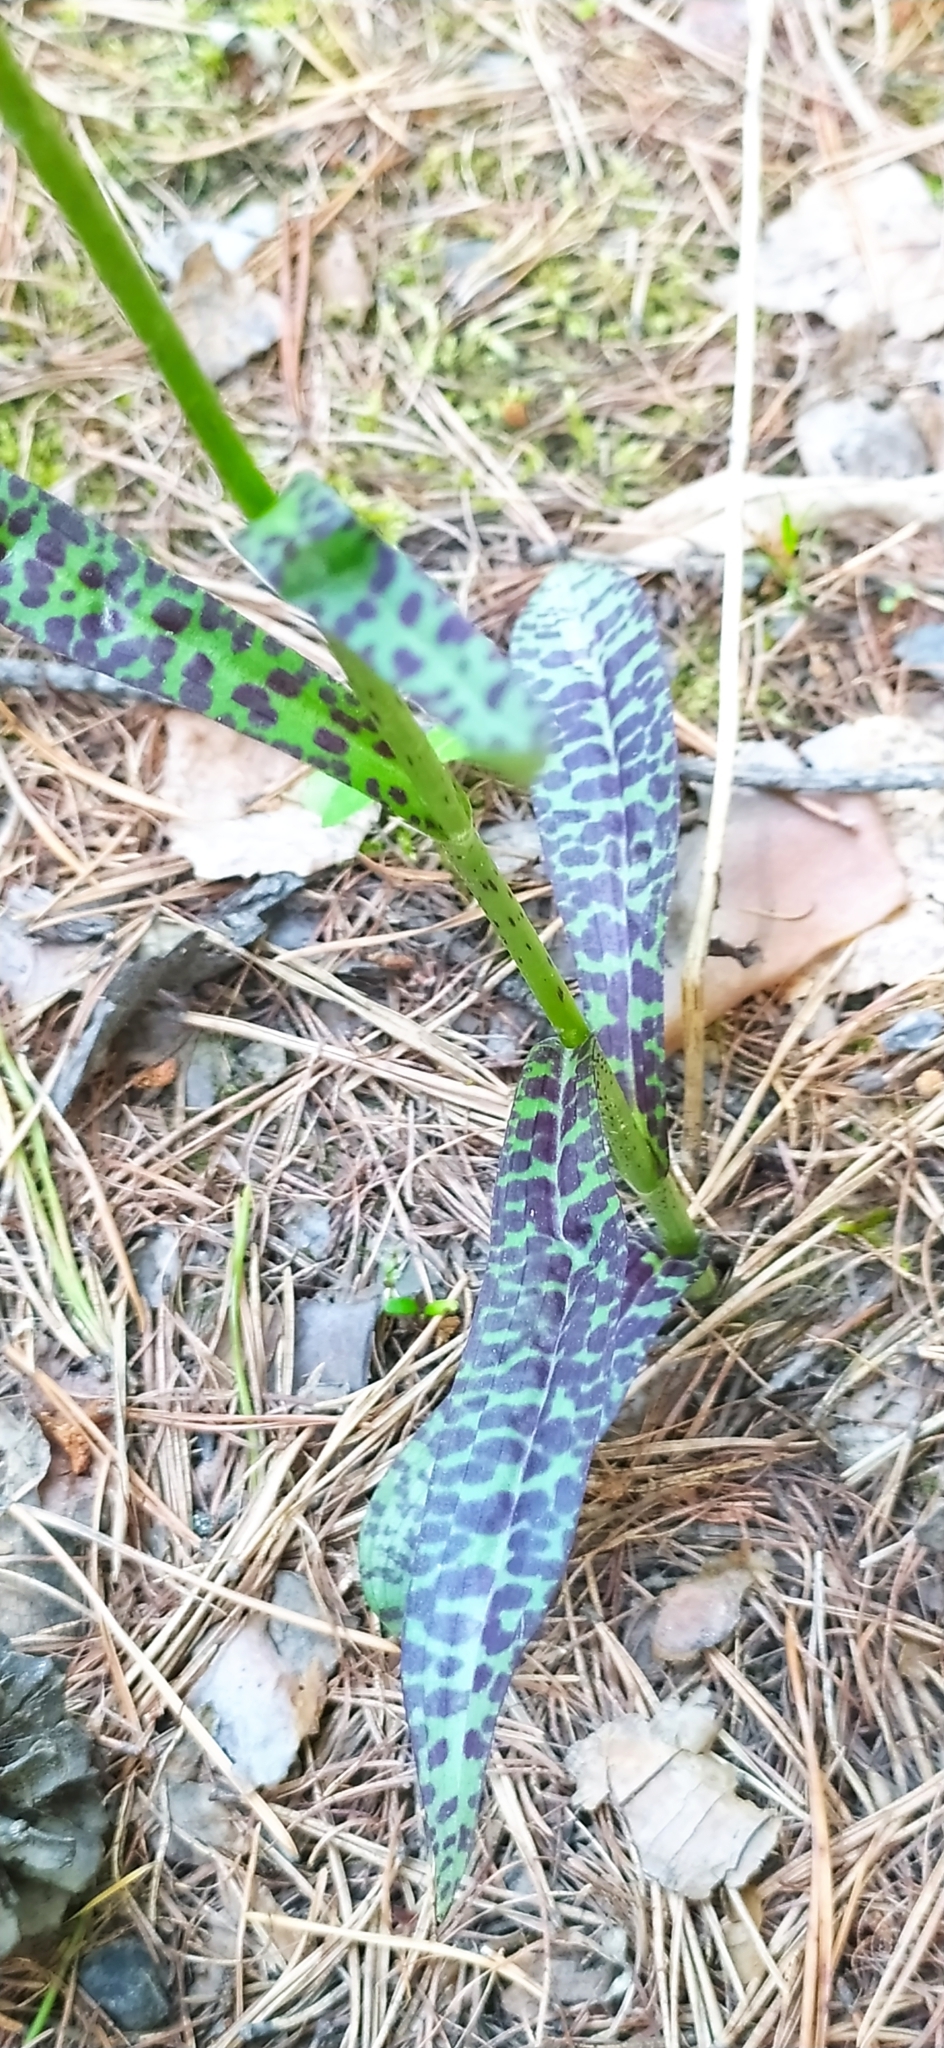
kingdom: Plantae
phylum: Tracheophyta
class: Liliopsida
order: Asparagales
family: Orchidaceae
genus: Dactylorhiza
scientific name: Dactylorhiza maculata
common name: Heath spotted-orchid
